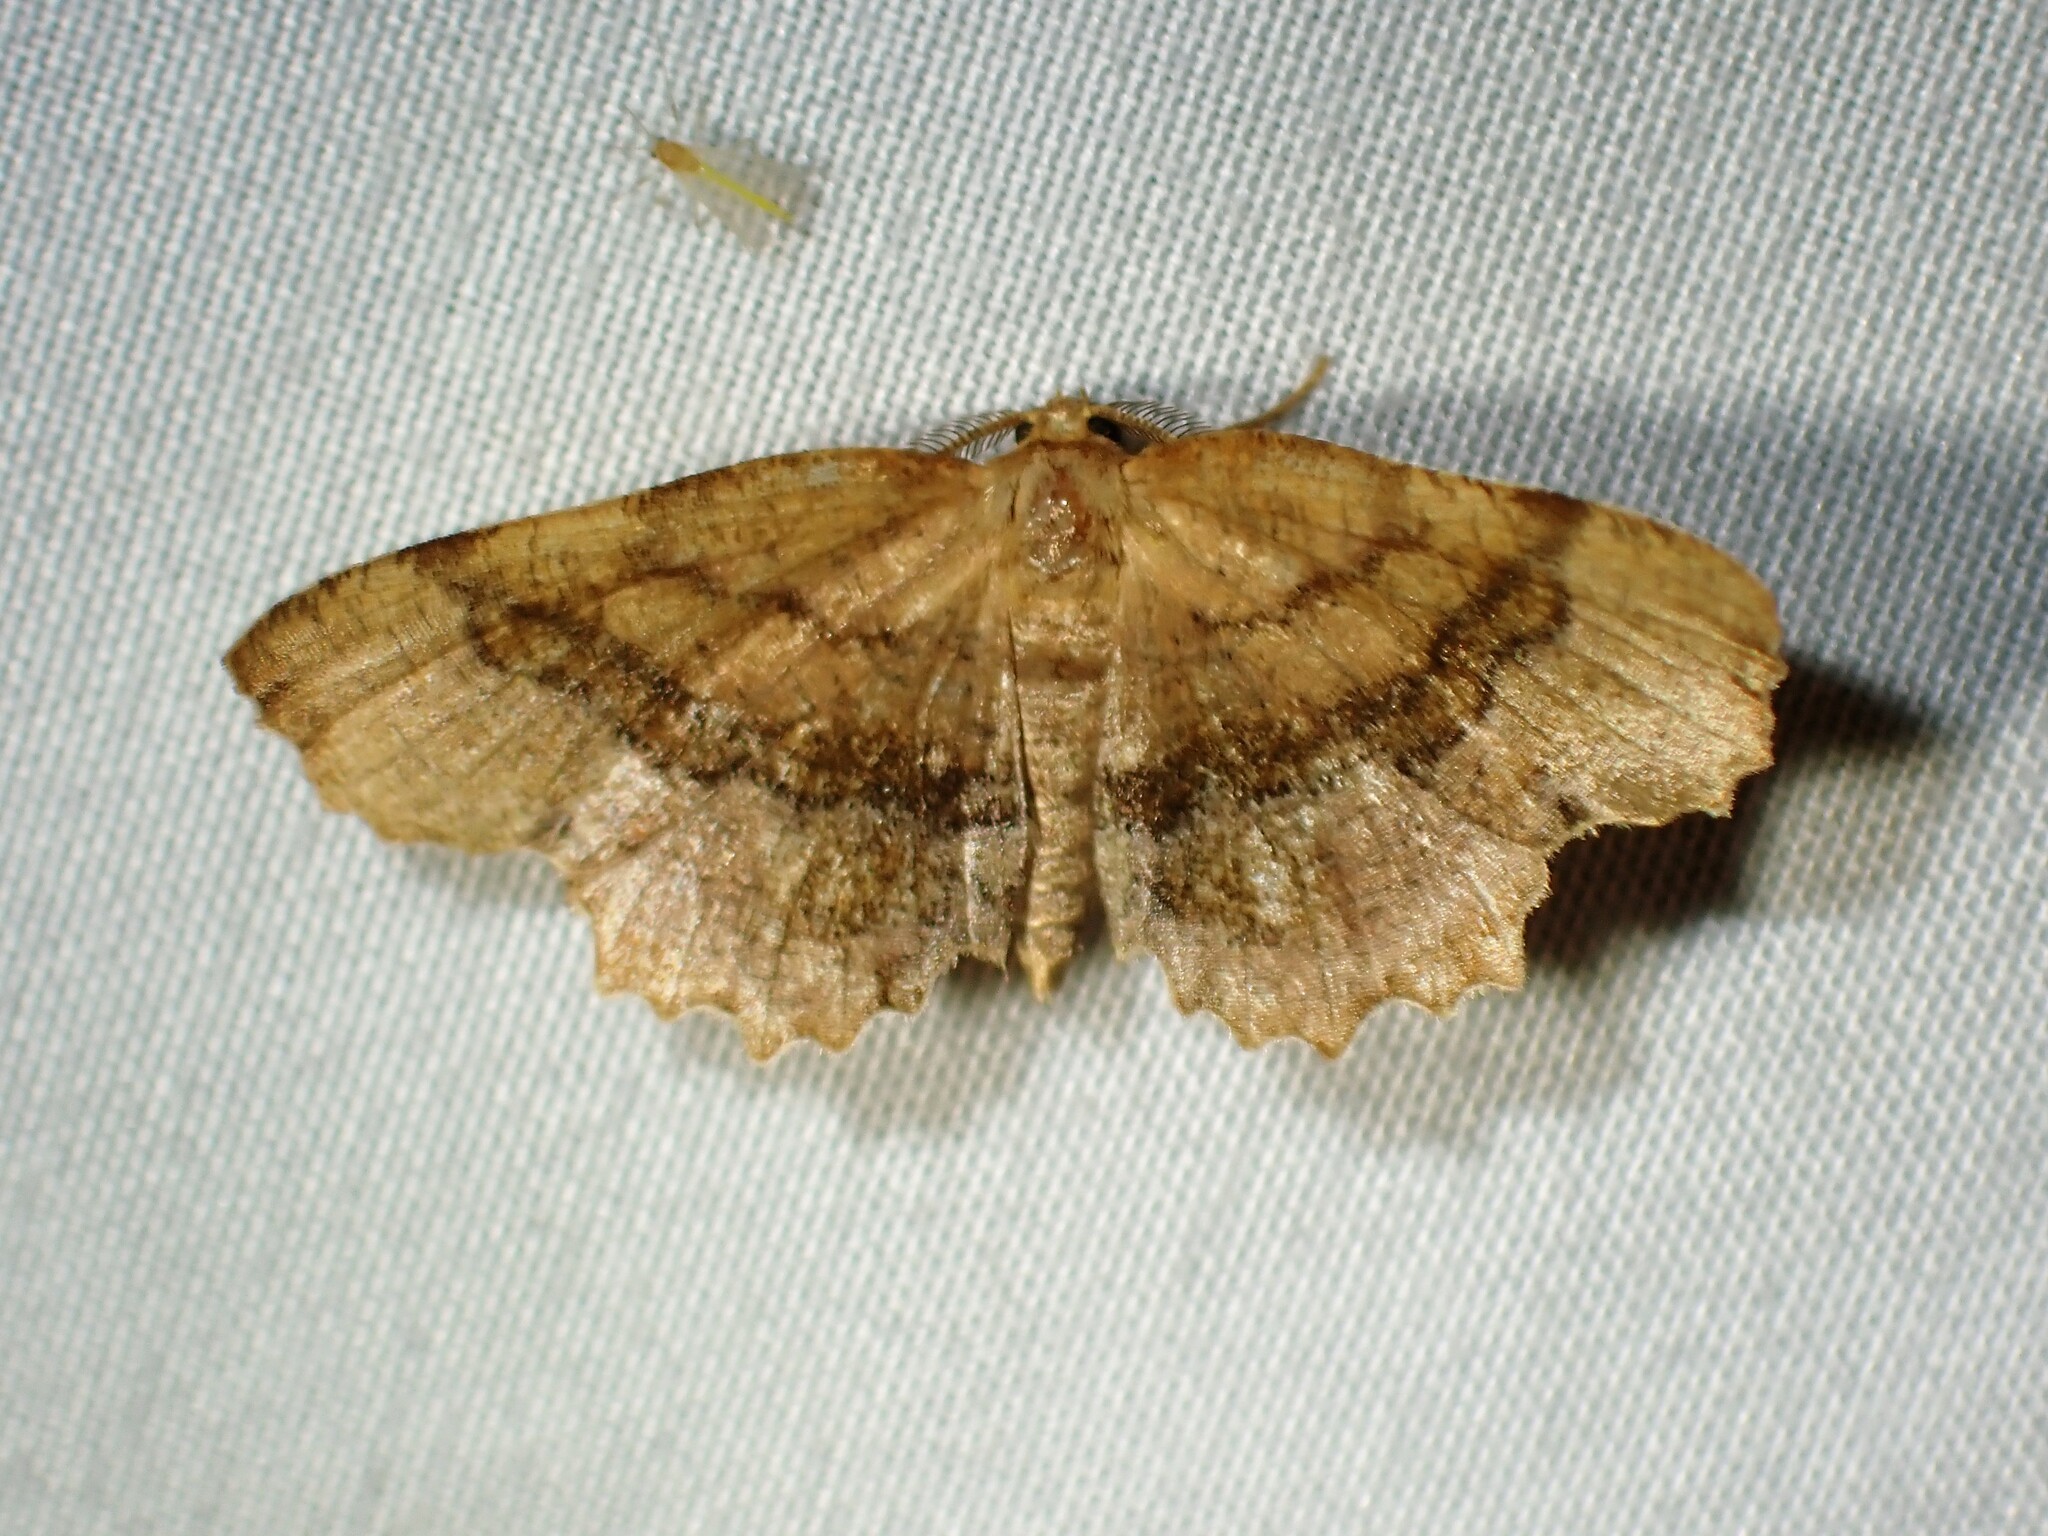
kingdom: Animalia
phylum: Arthropoda
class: Insecta
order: Lepidoptera
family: Geometridae
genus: Cepphis
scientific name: Cepphis armataria
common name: Scallop moth
